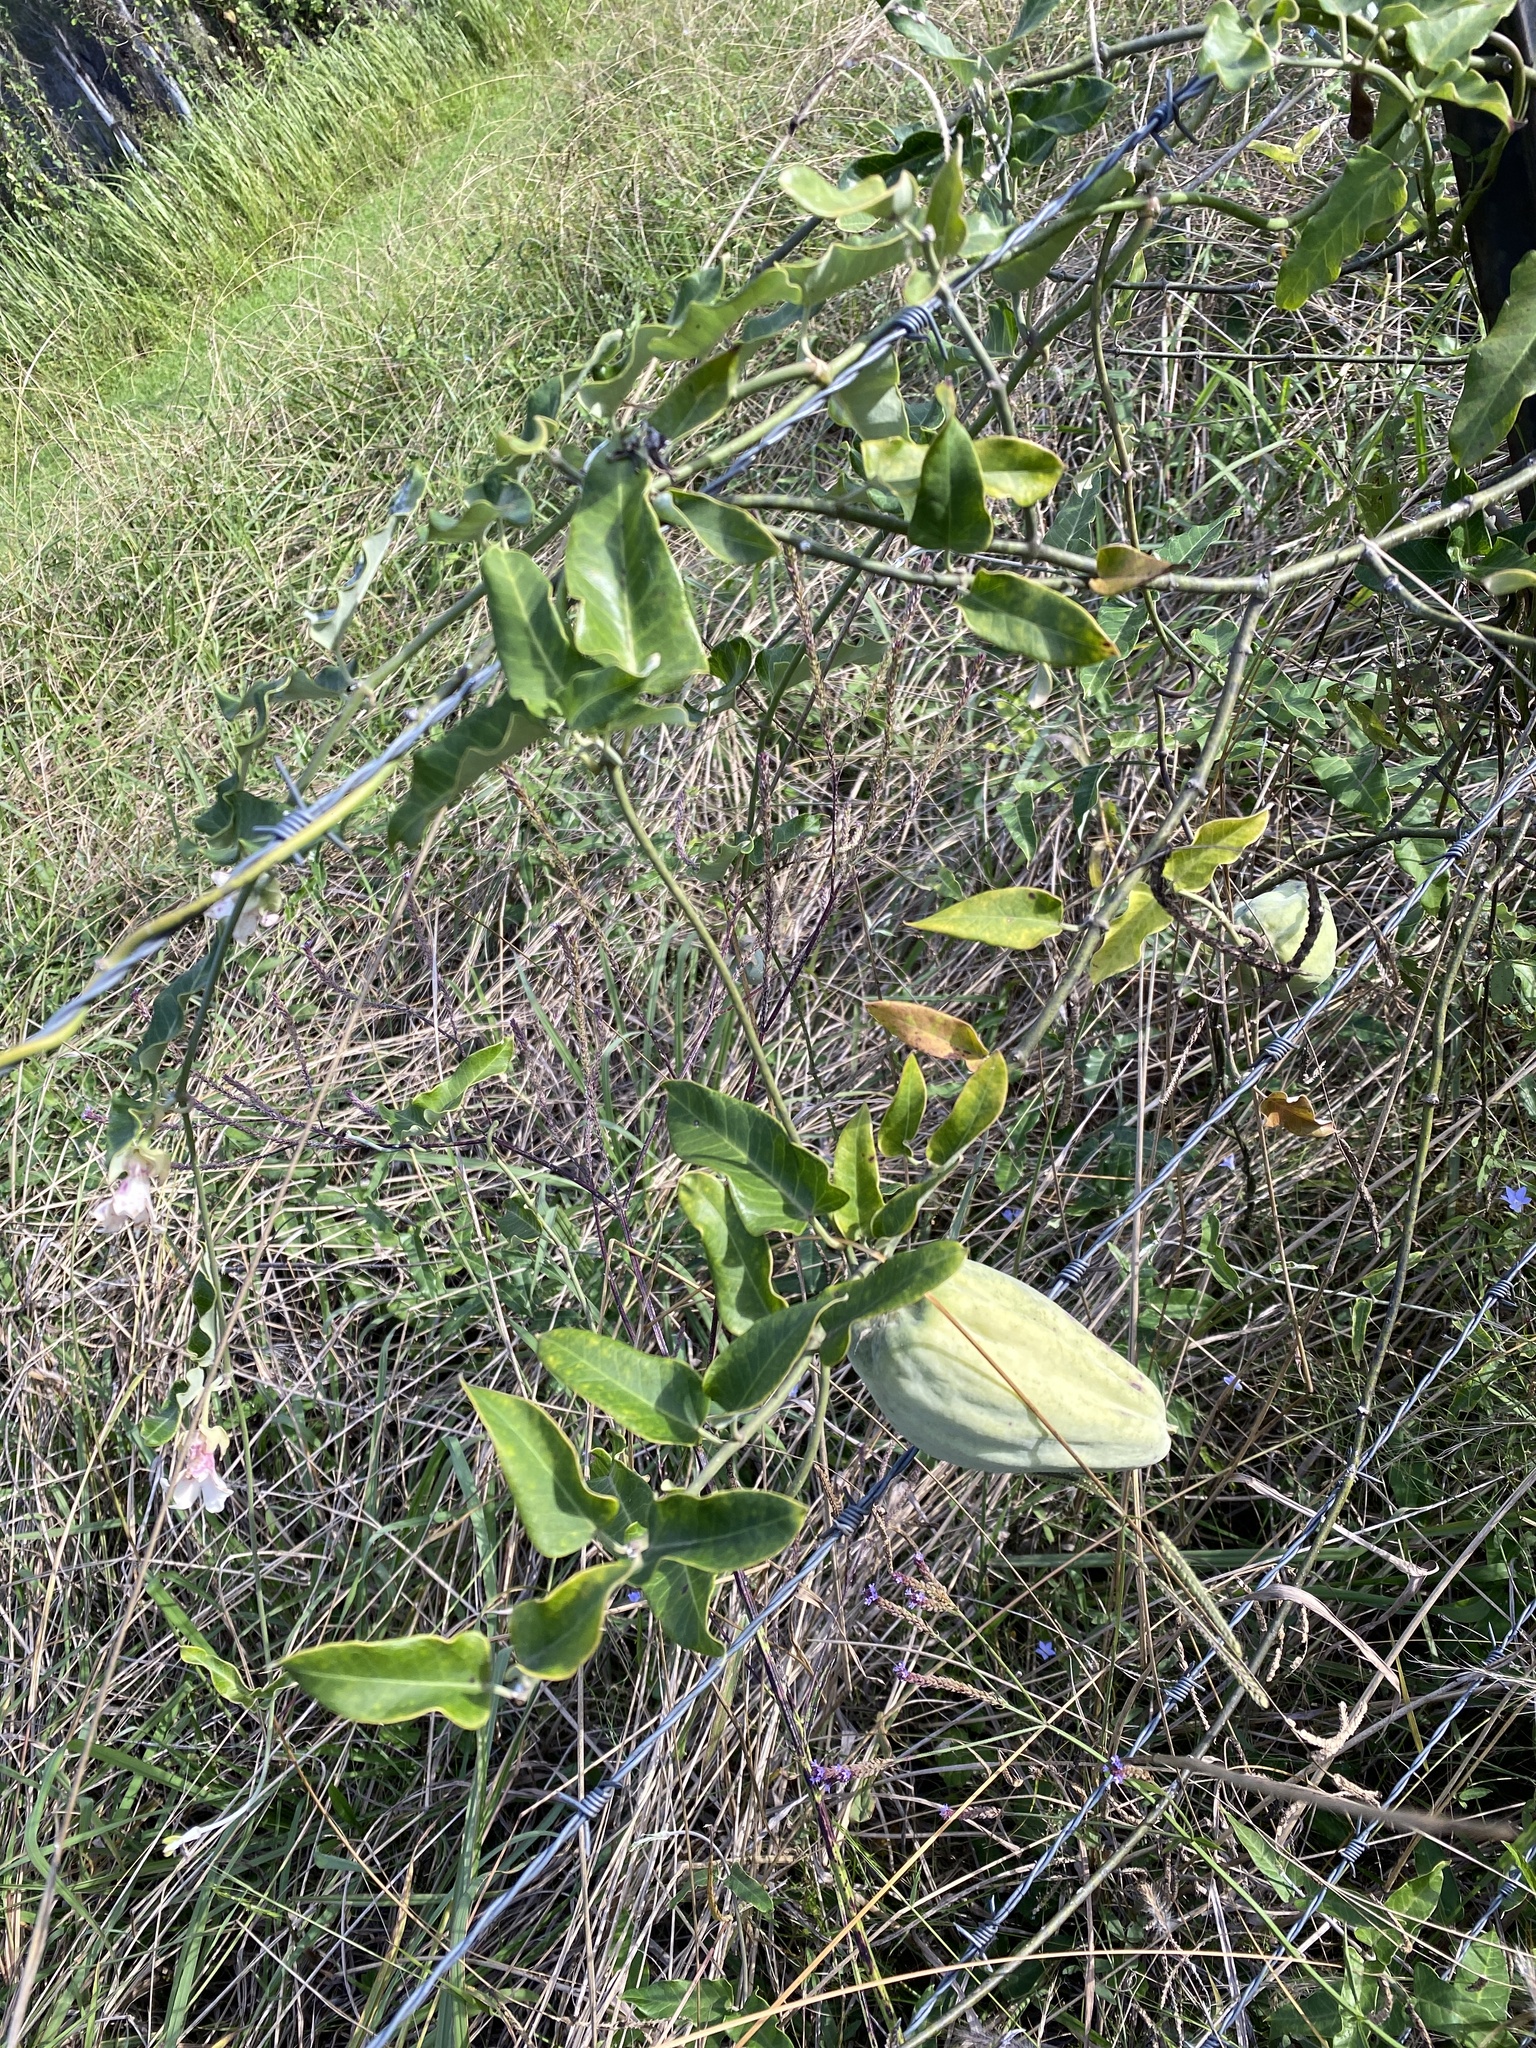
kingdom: Plantae
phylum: Tracheophyta
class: Magnoliopsida
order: Gentianales
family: Apocynaceae
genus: Araujia
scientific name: Araujia sericifera
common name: White bladderflower
